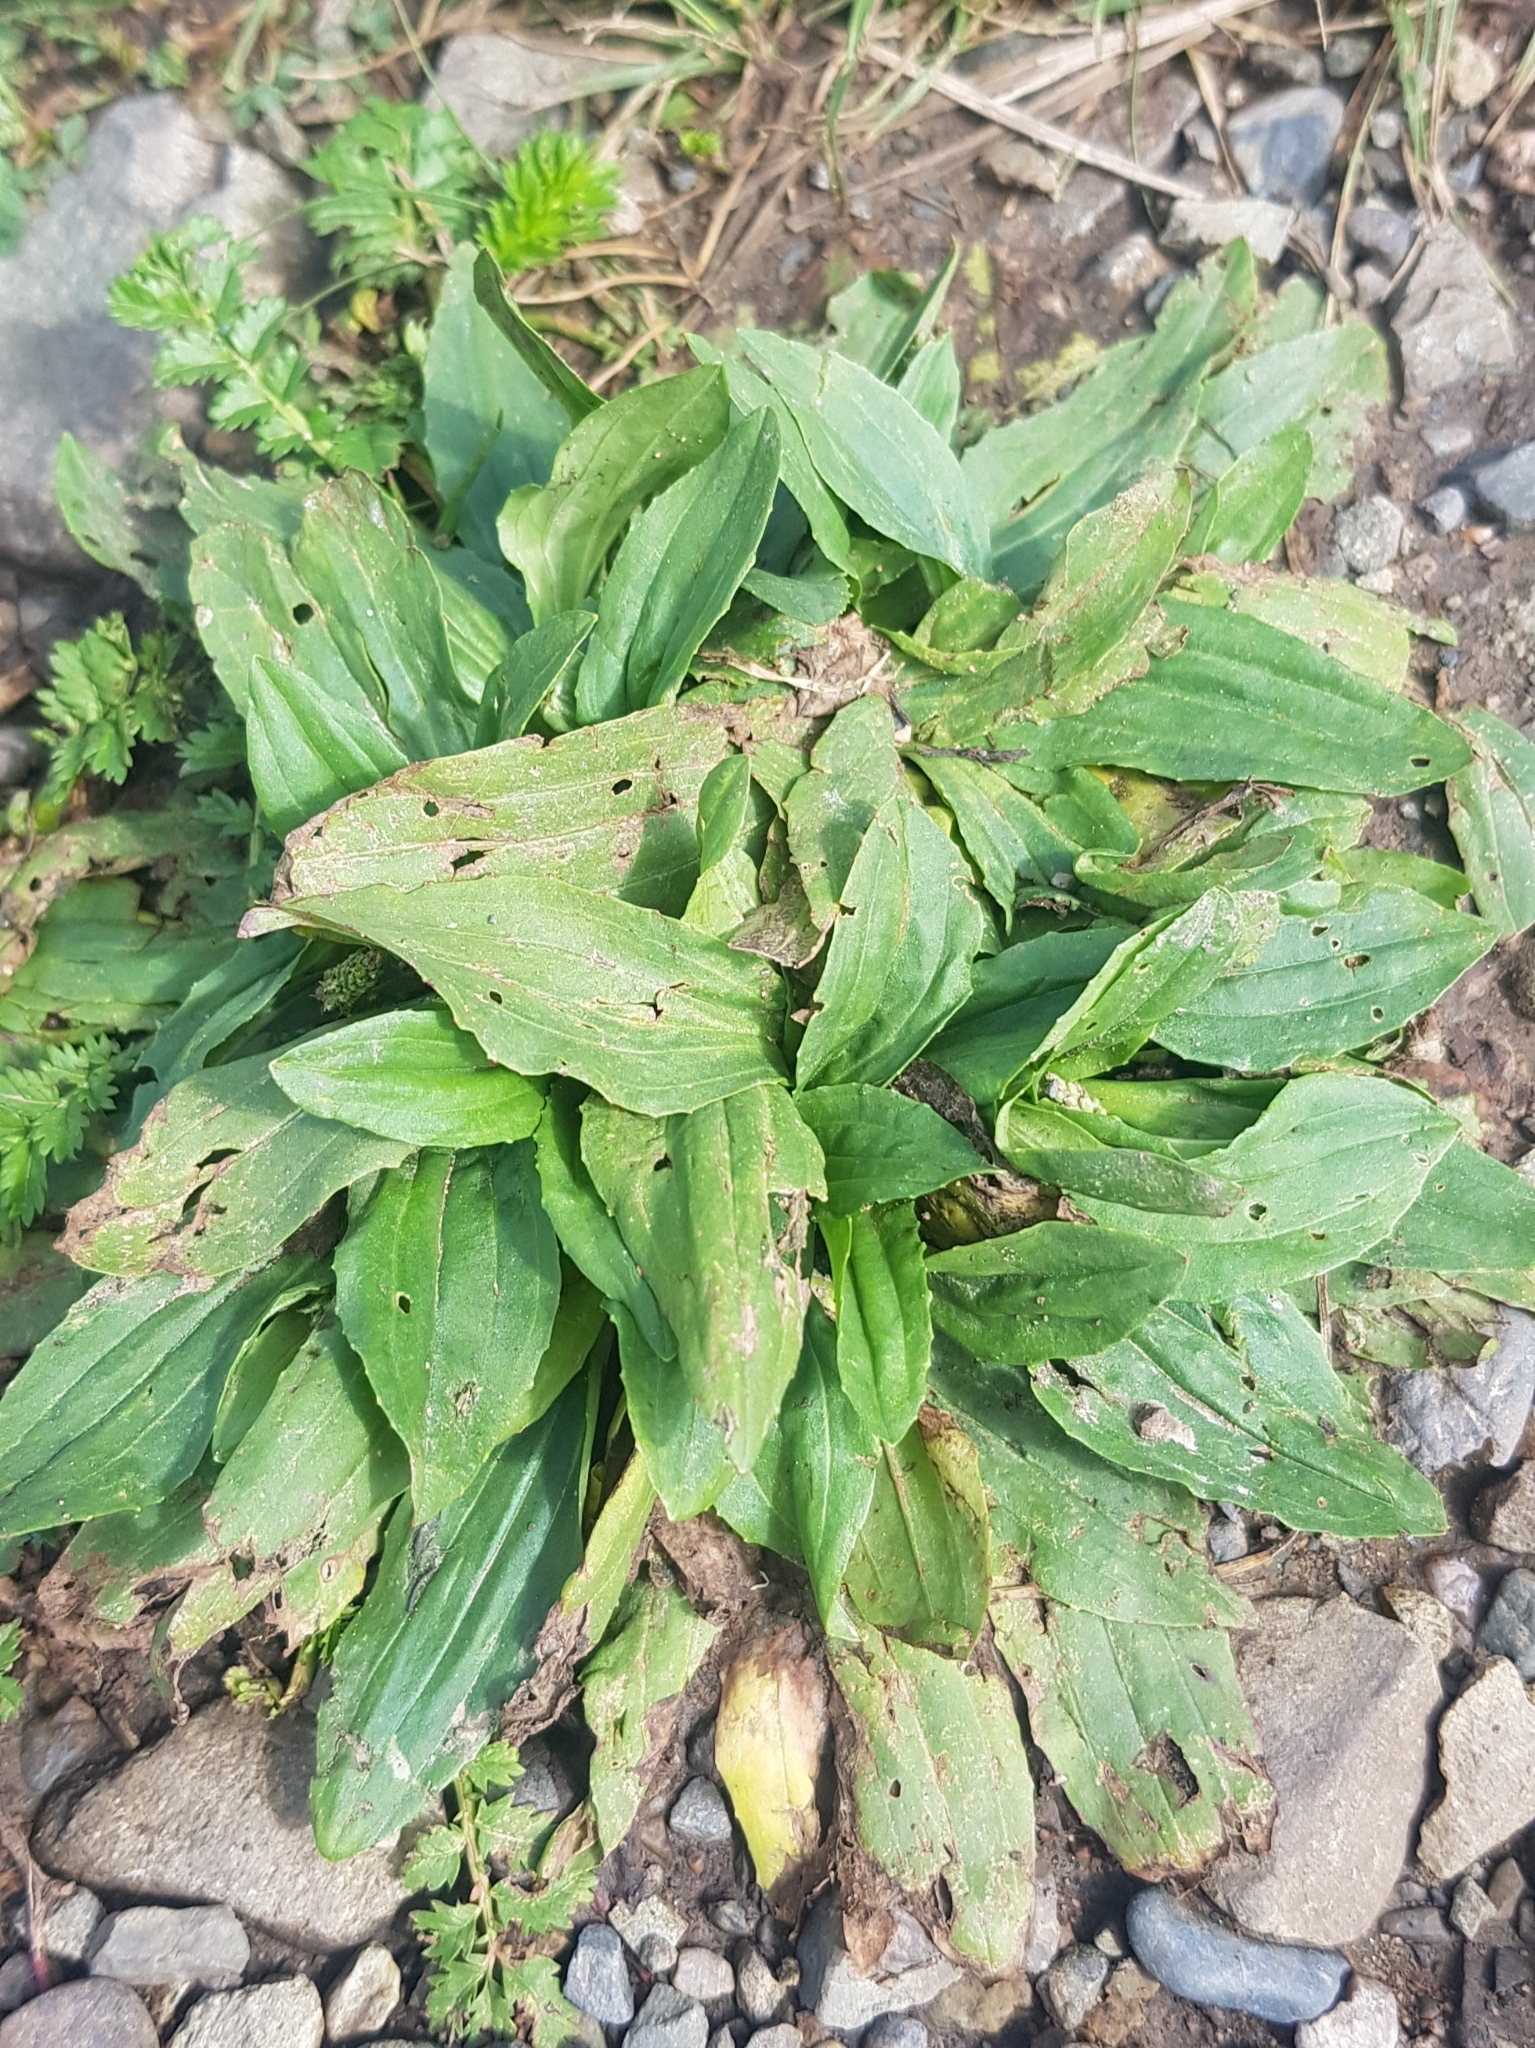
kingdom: Plantae
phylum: Tracheophyta
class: Magnoliopsida
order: Lamiales
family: Plantaginaceae
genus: Plantago
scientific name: Plantago depressa
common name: Depressed plantain
